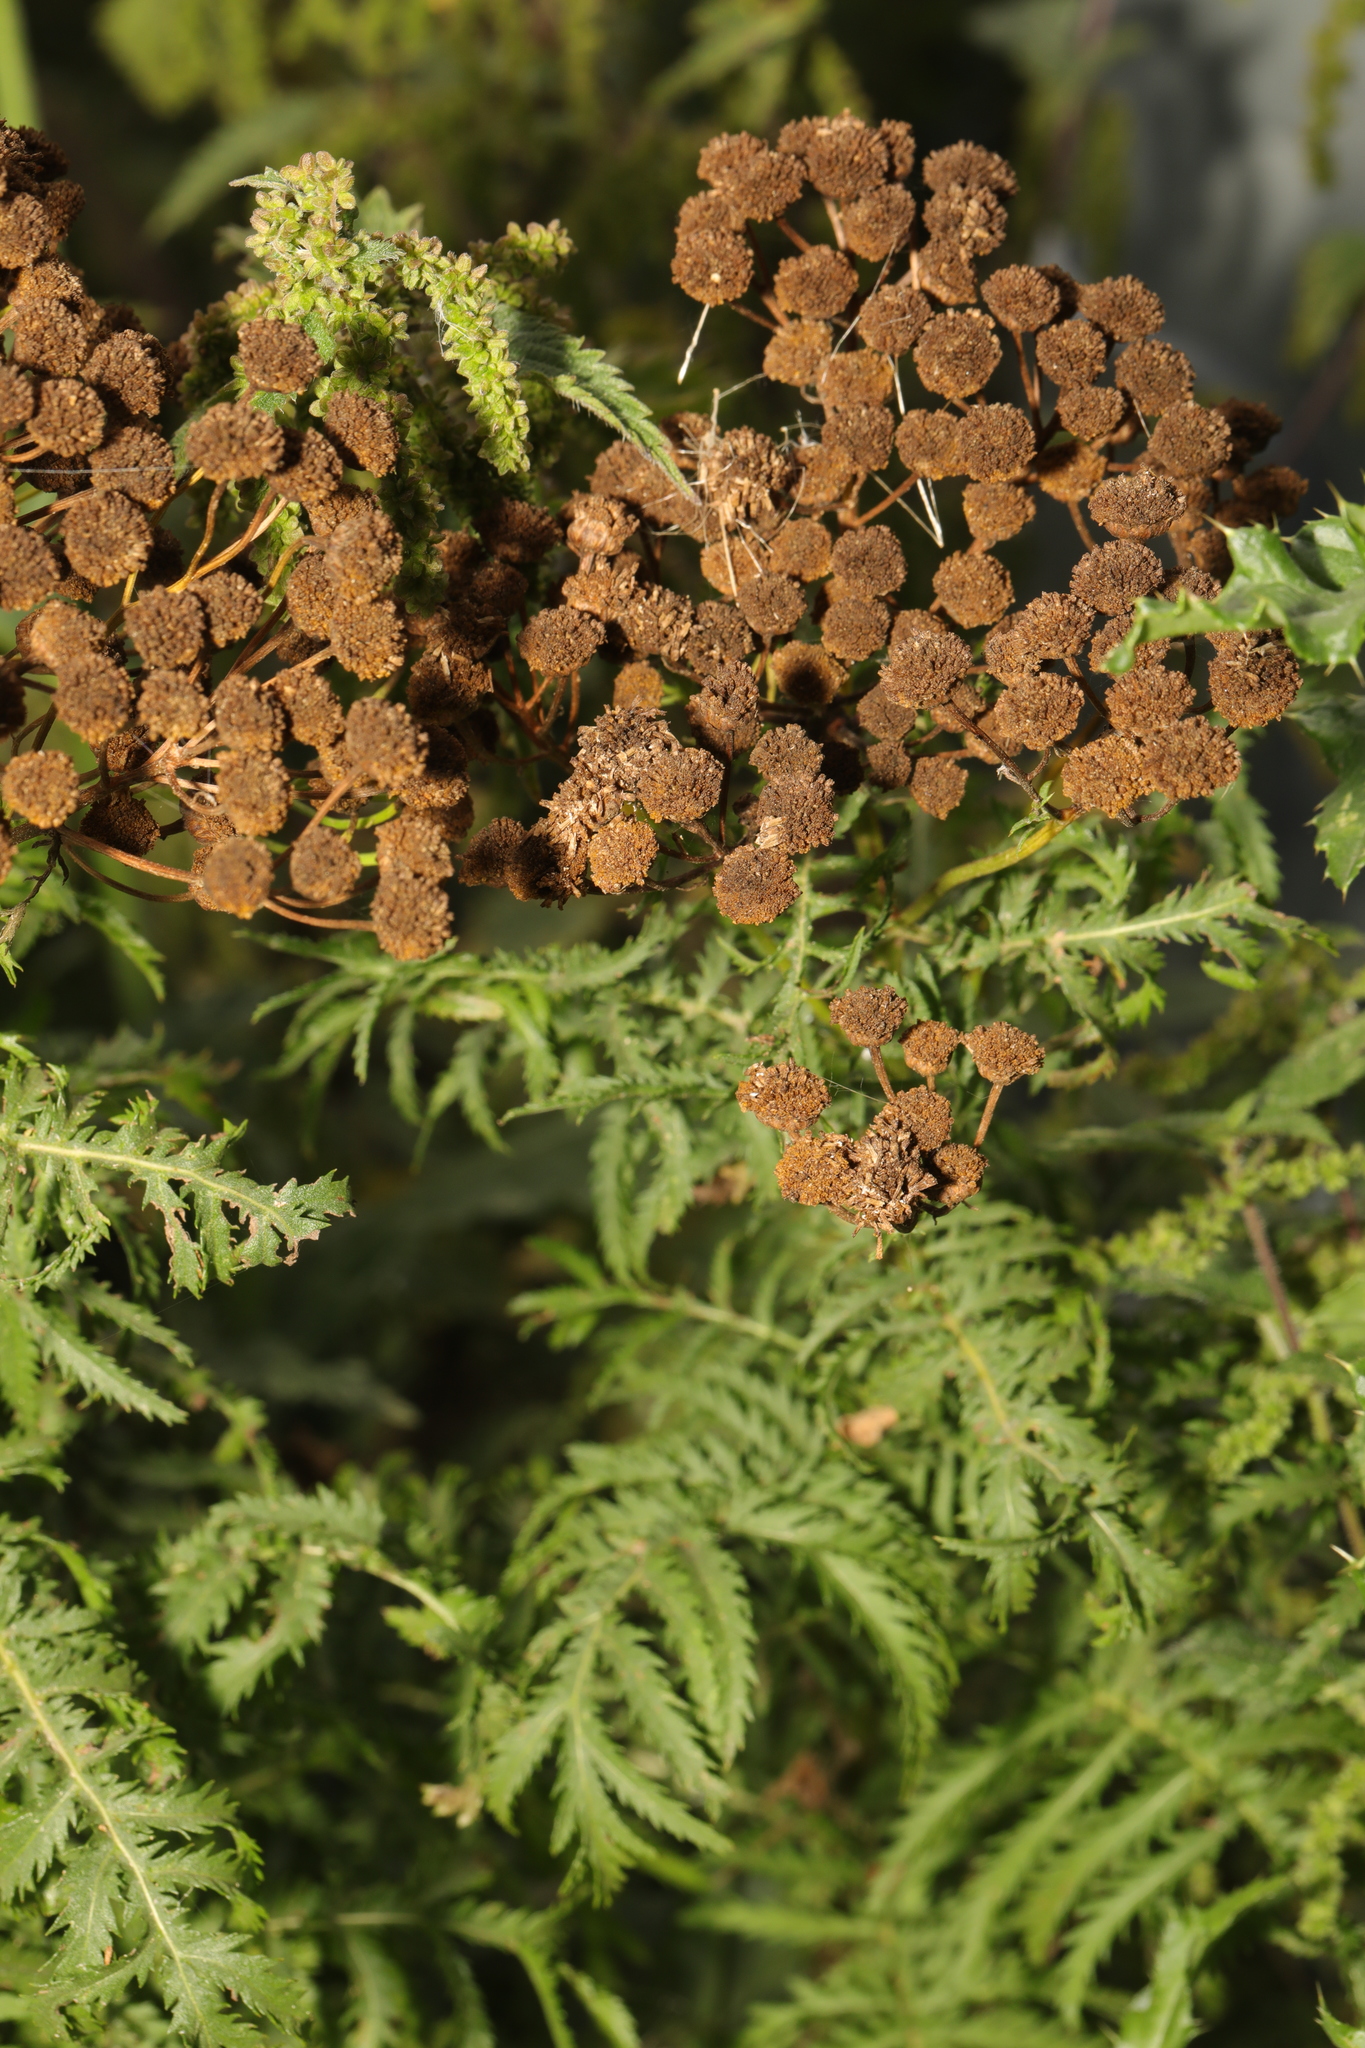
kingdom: Plantae
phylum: Tracheophyta
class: Magnoliopsida
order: Asterales
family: Asteraceae
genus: Tanacetum
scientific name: Tanacetum vulgare
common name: Common tansy
